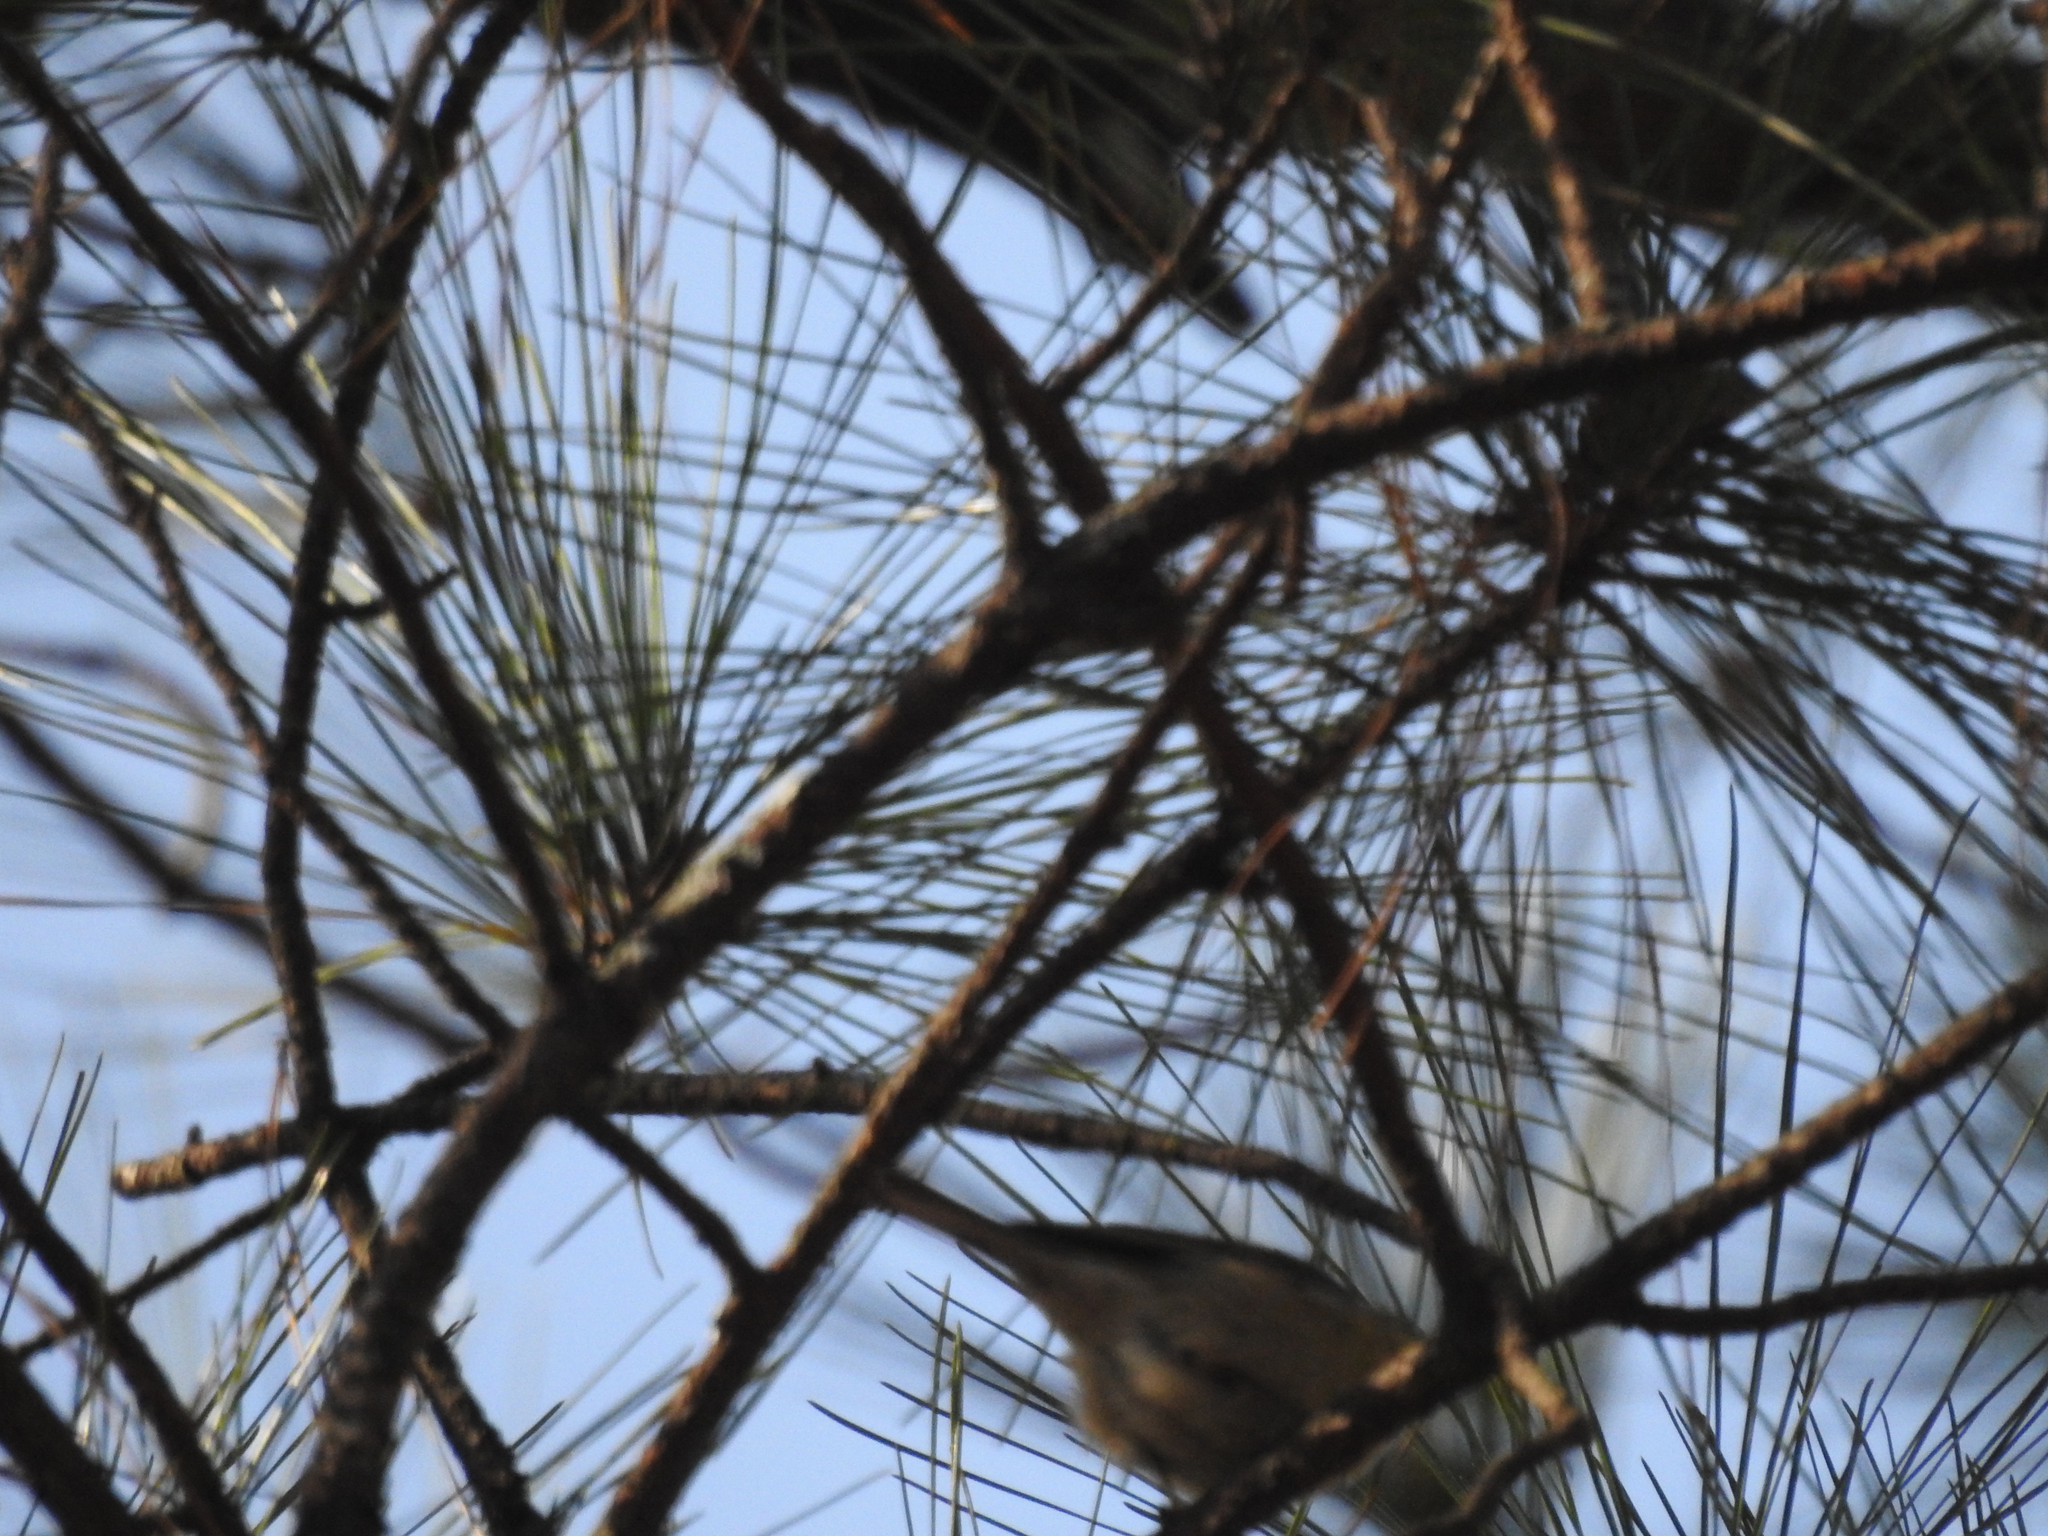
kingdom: Animalia
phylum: Chordata
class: Aves
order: Passeriformes
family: Parulidae
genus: Setophaga
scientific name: Setophaga pinus
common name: Pine warbler
